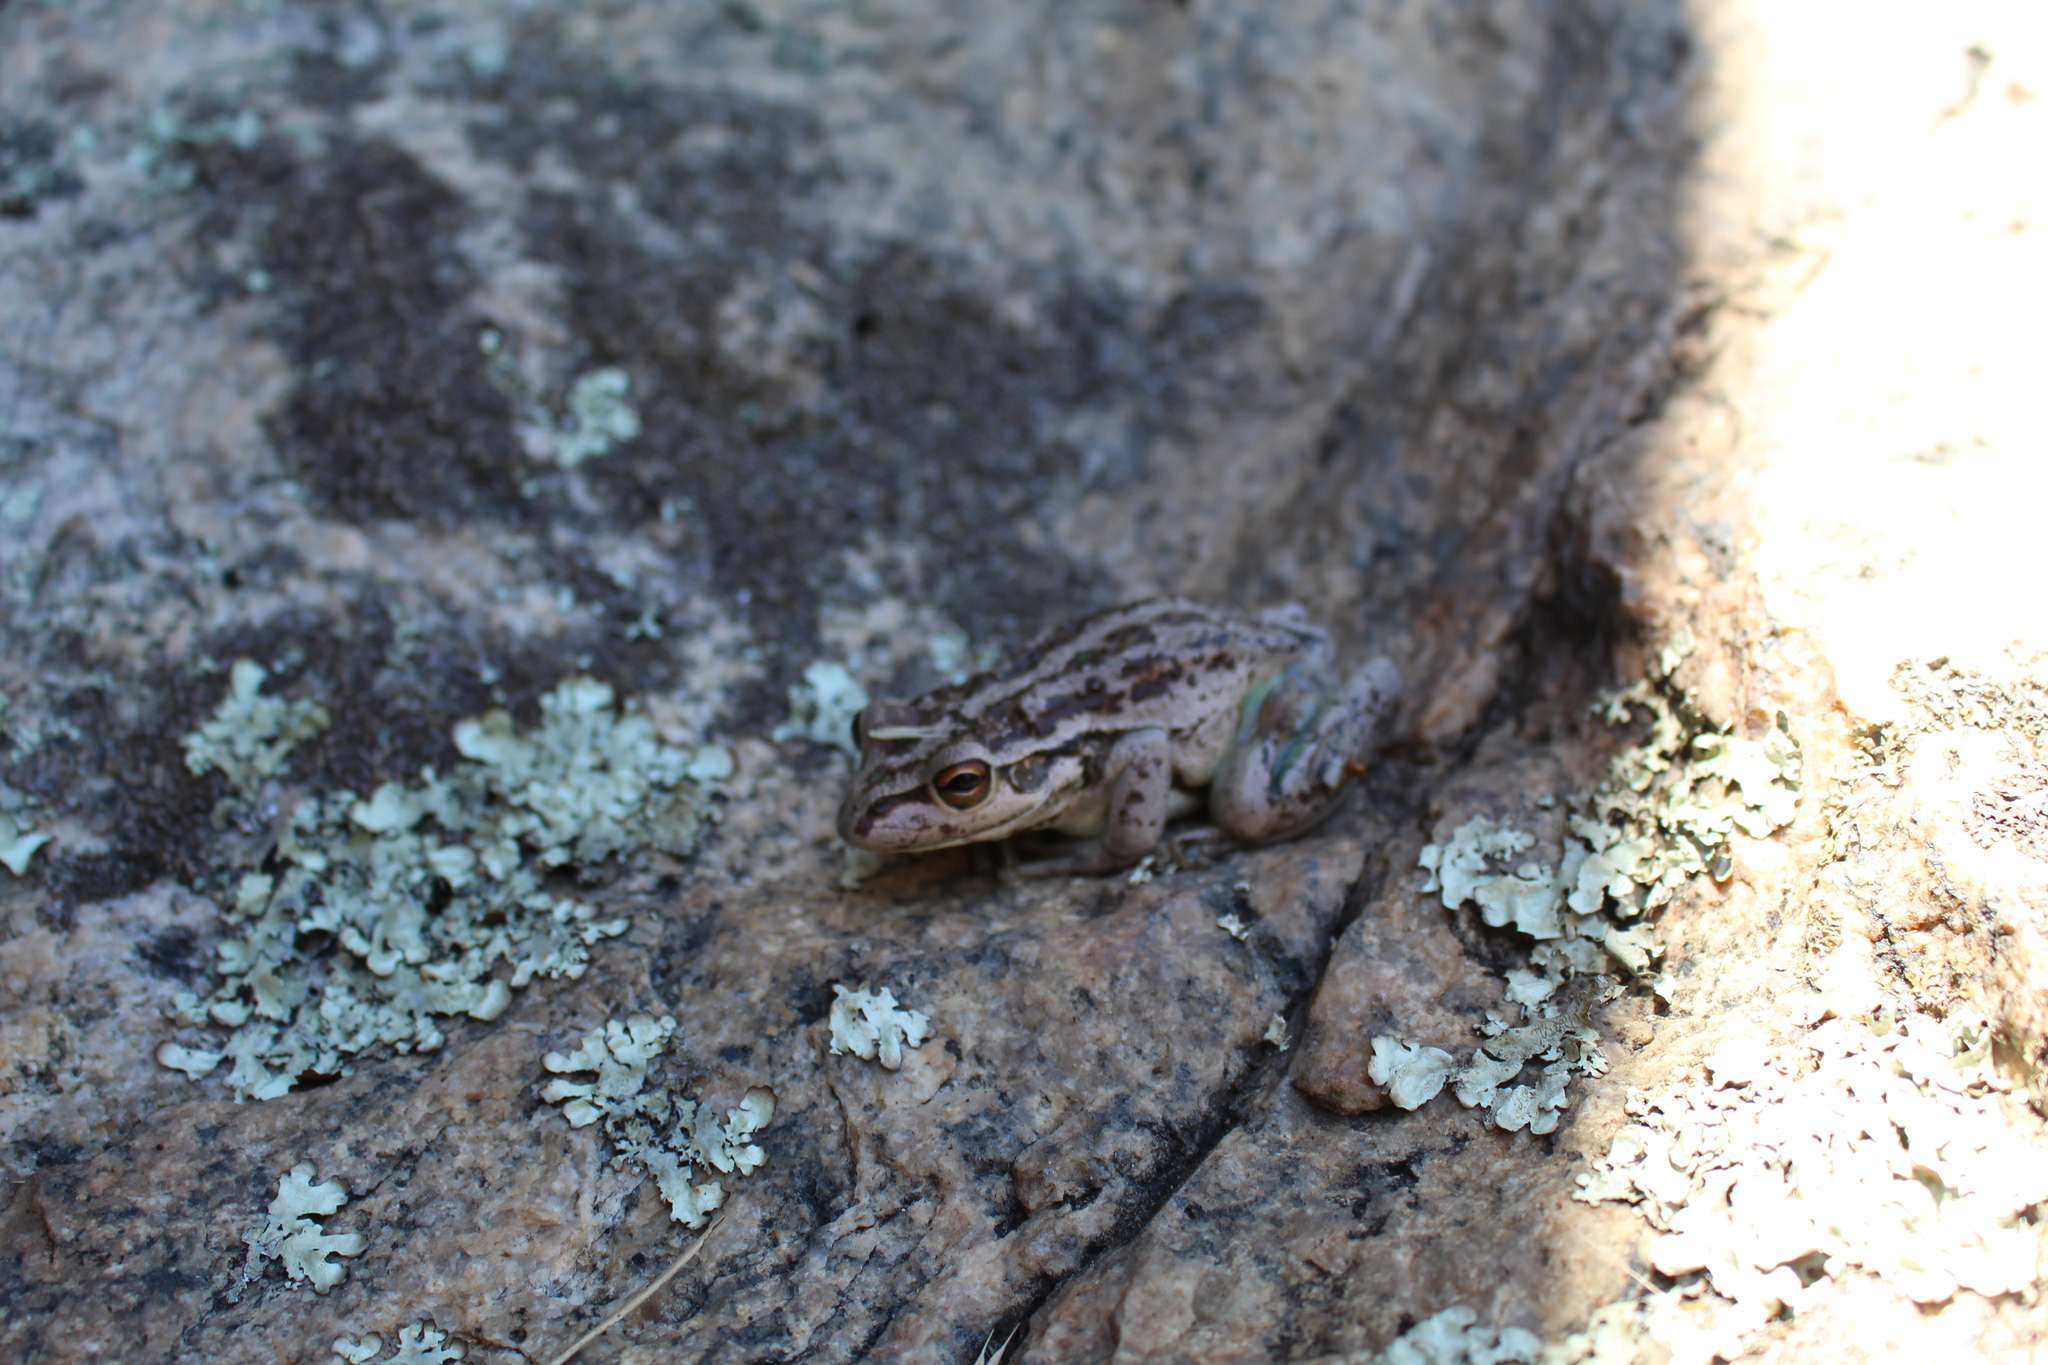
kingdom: Animalia
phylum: Chordata
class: Amphibia
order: Anura
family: Pelodryadidae
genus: Ranoidea
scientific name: Ranoidea moorei
